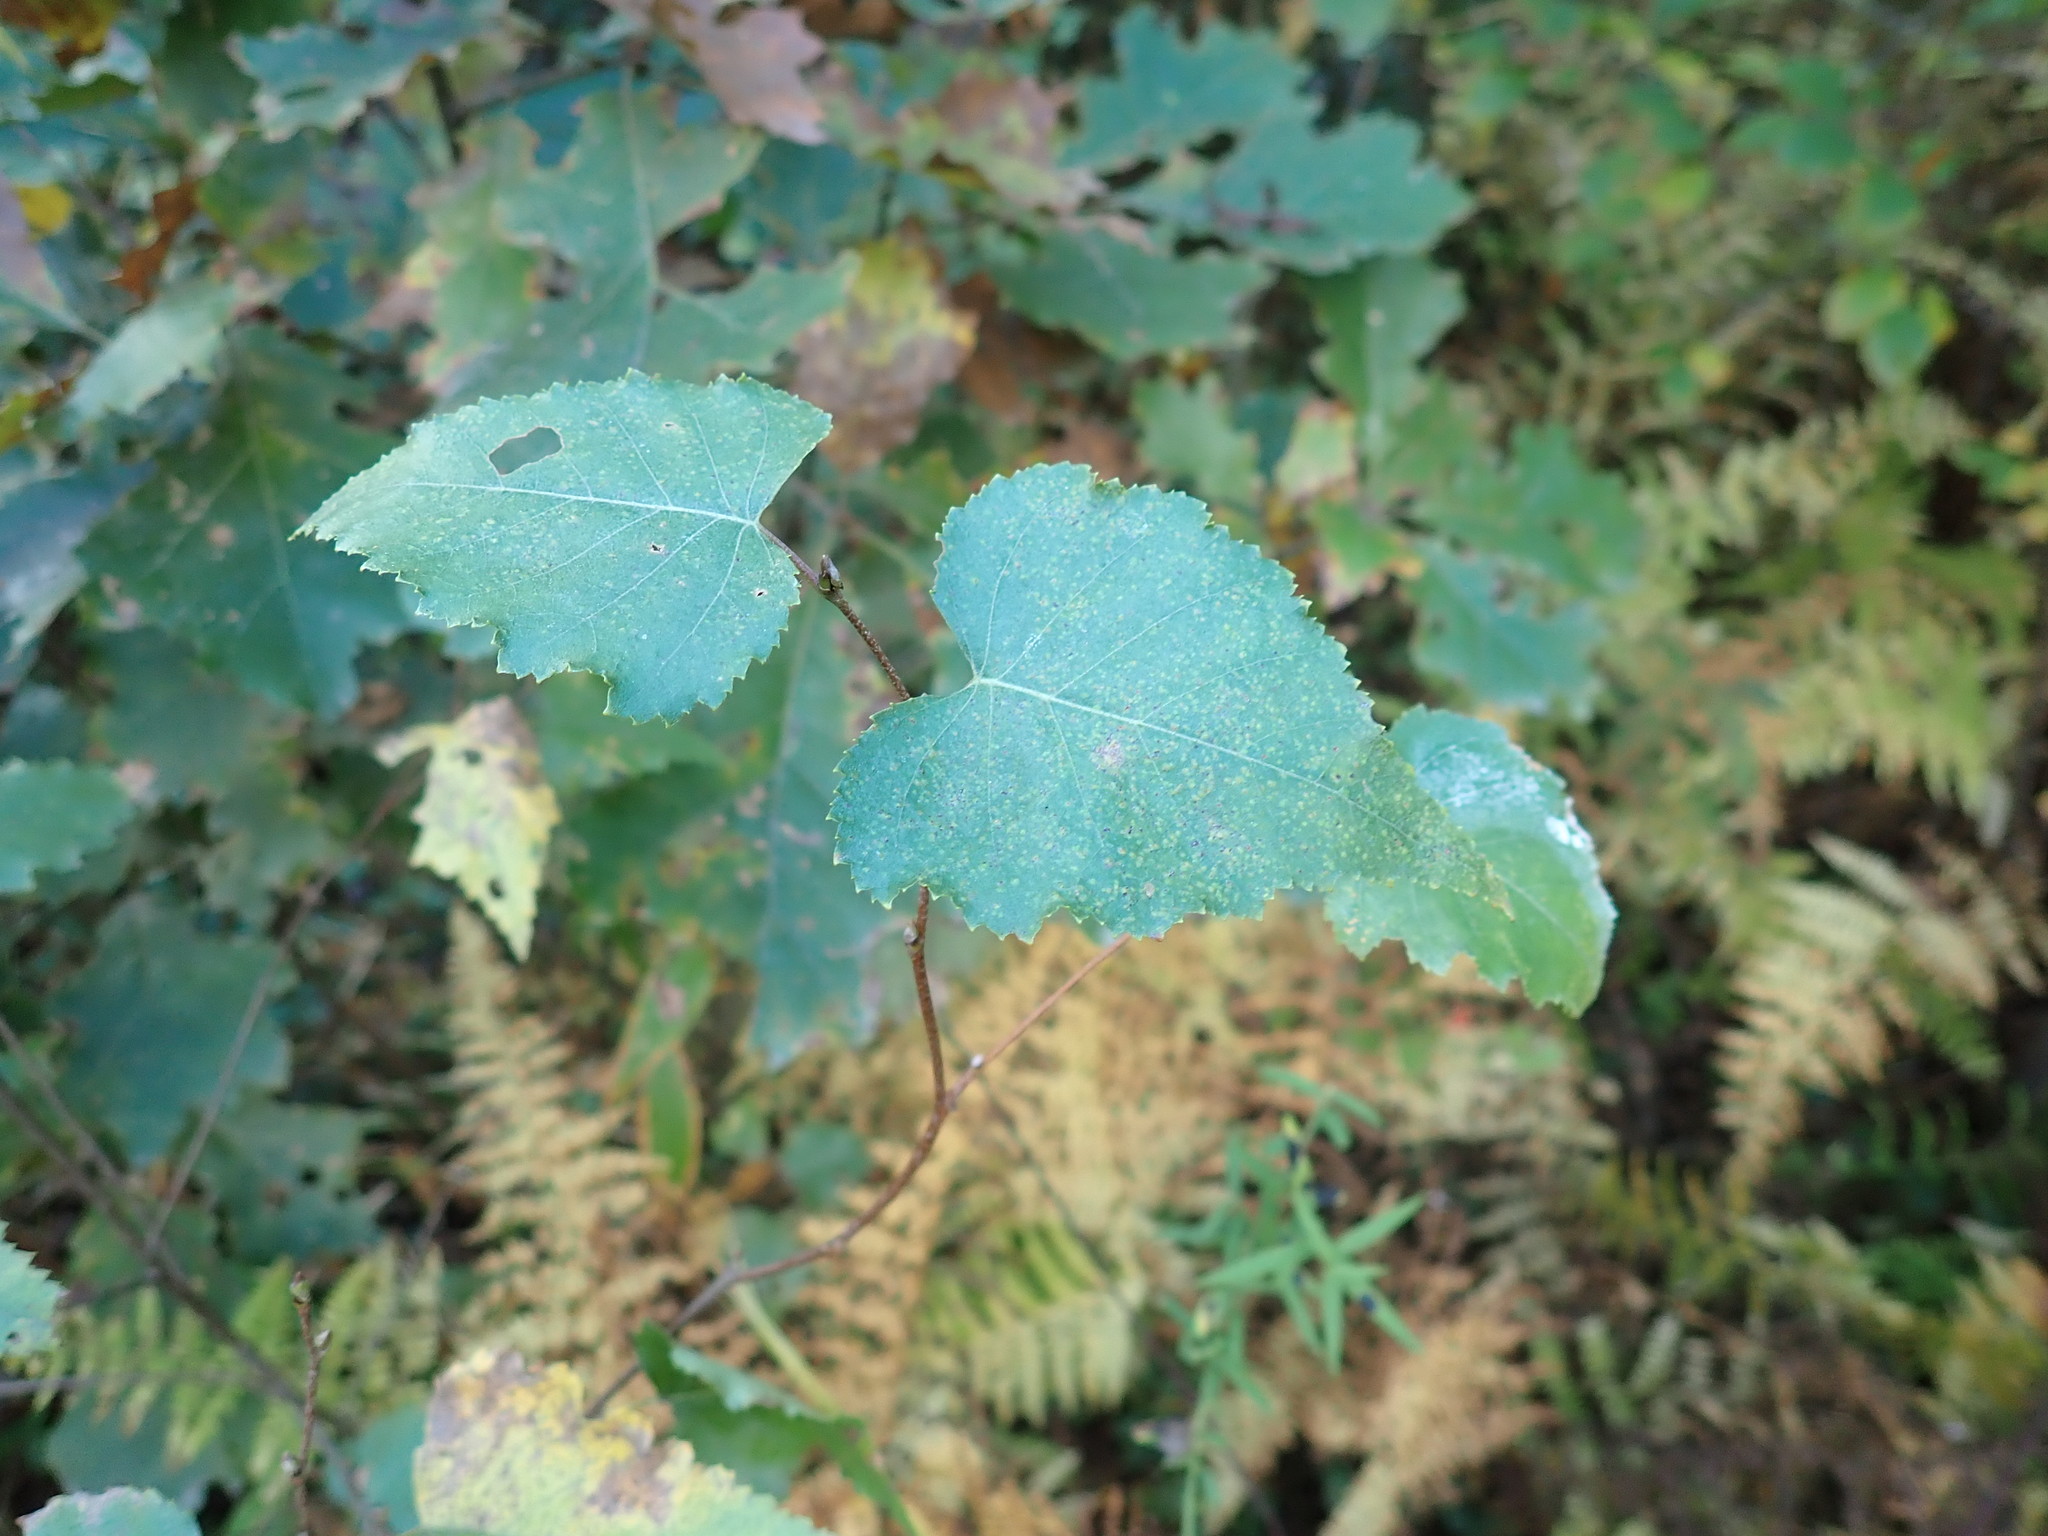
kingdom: Plantae
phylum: Tracheophyta
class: Magnoliopsida
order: Fagales
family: Betulaceae
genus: Betula
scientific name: Betula populifolia
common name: Fire birch
